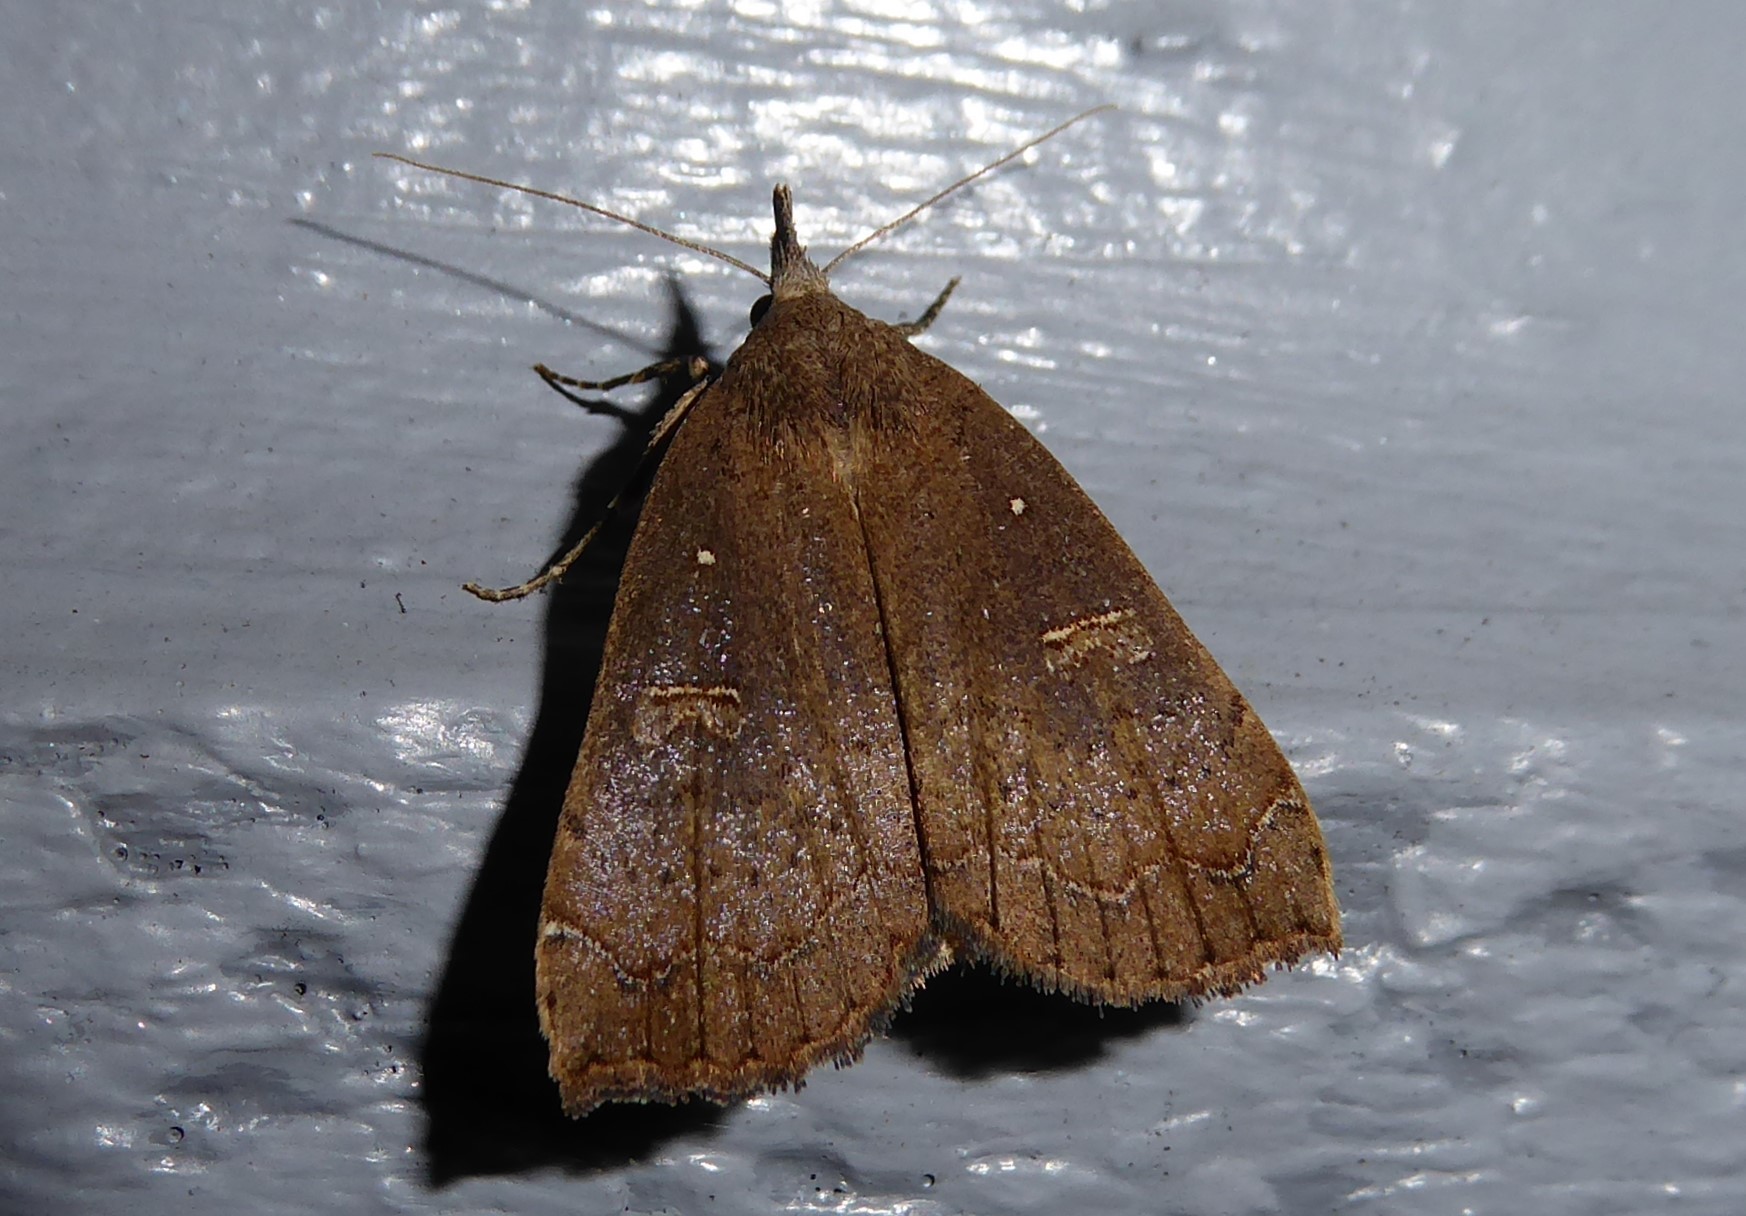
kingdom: Animalia
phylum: Arthropoda
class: Insecta
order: Lepidoptera
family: Erebidae
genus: Rhapsa
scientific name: Rhapsa scotosialis
